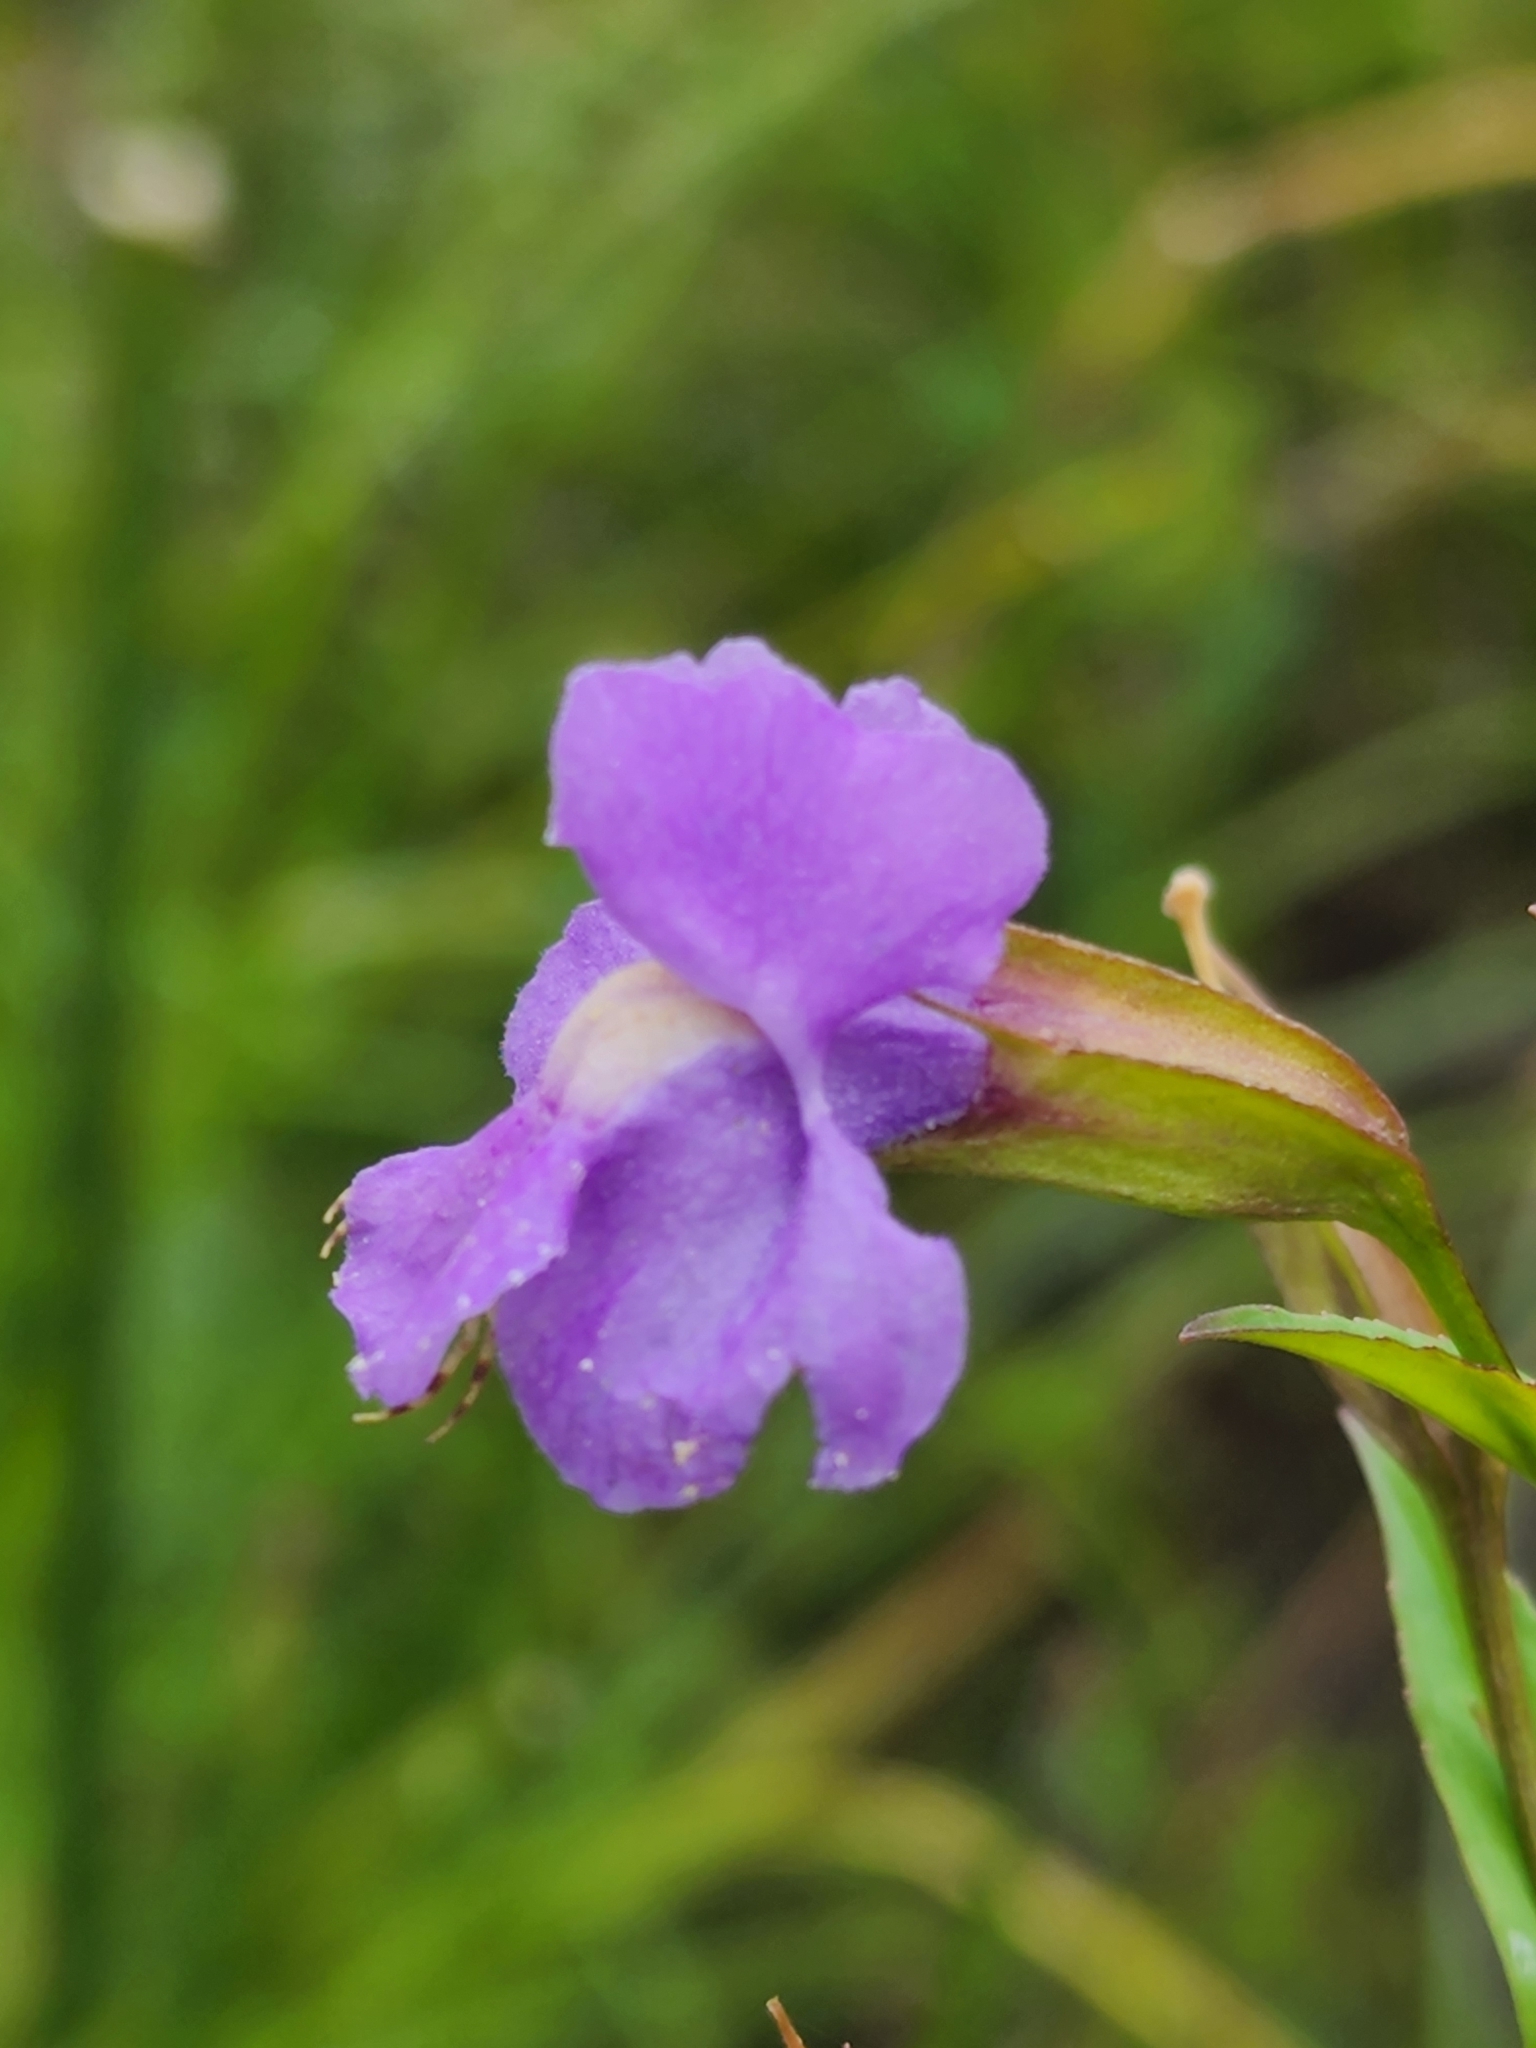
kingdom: Plantae
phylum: Tracheophyta
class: Magnoliopsida
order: Lamiales
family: Phrymaceae
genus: Mimulus
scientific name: Mimulus ringens
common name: Allegheny monkeyflower
